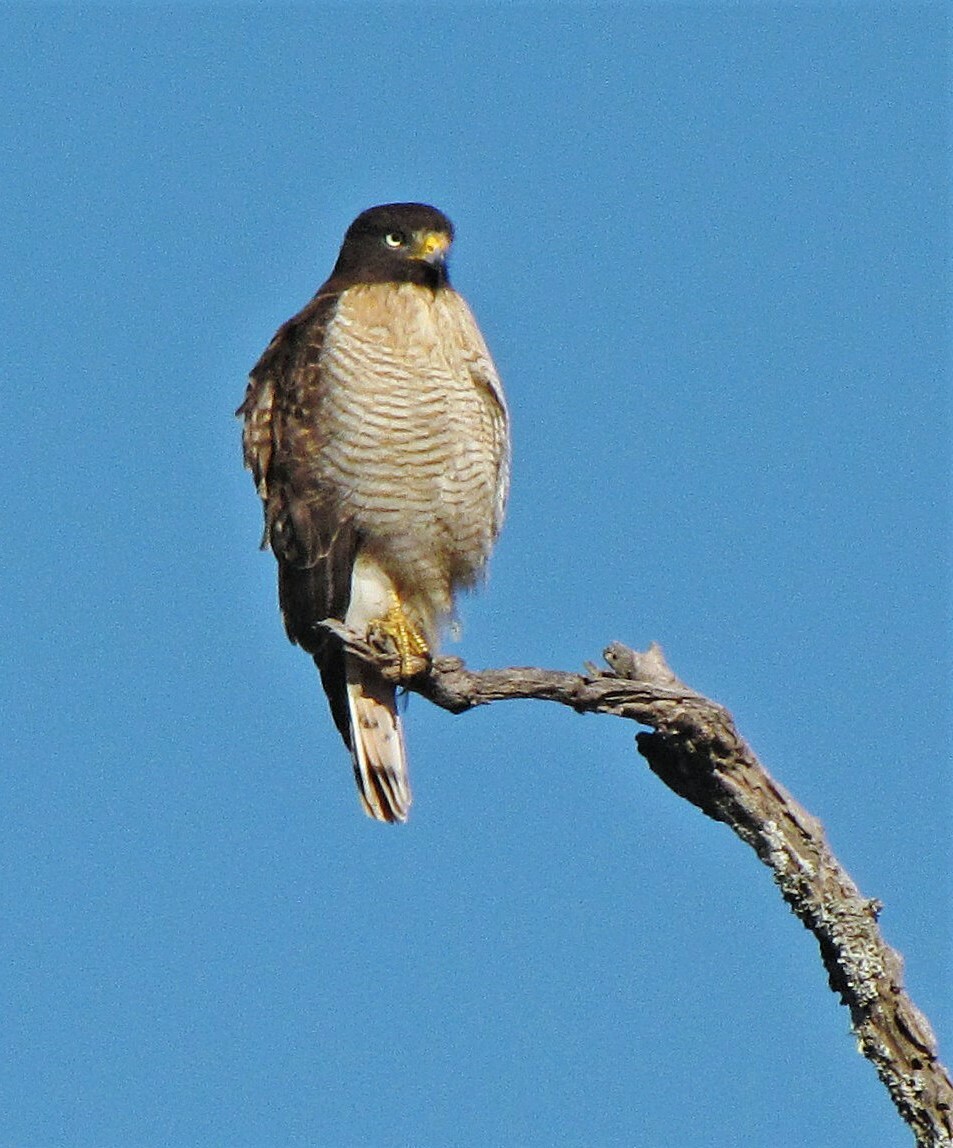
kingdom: Animalia
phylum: Chordata
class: Aves
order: Accipitriformes
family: Accipitridae
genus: Rupornis
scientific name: Rupornis magnirostris
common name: Roadside hawk
